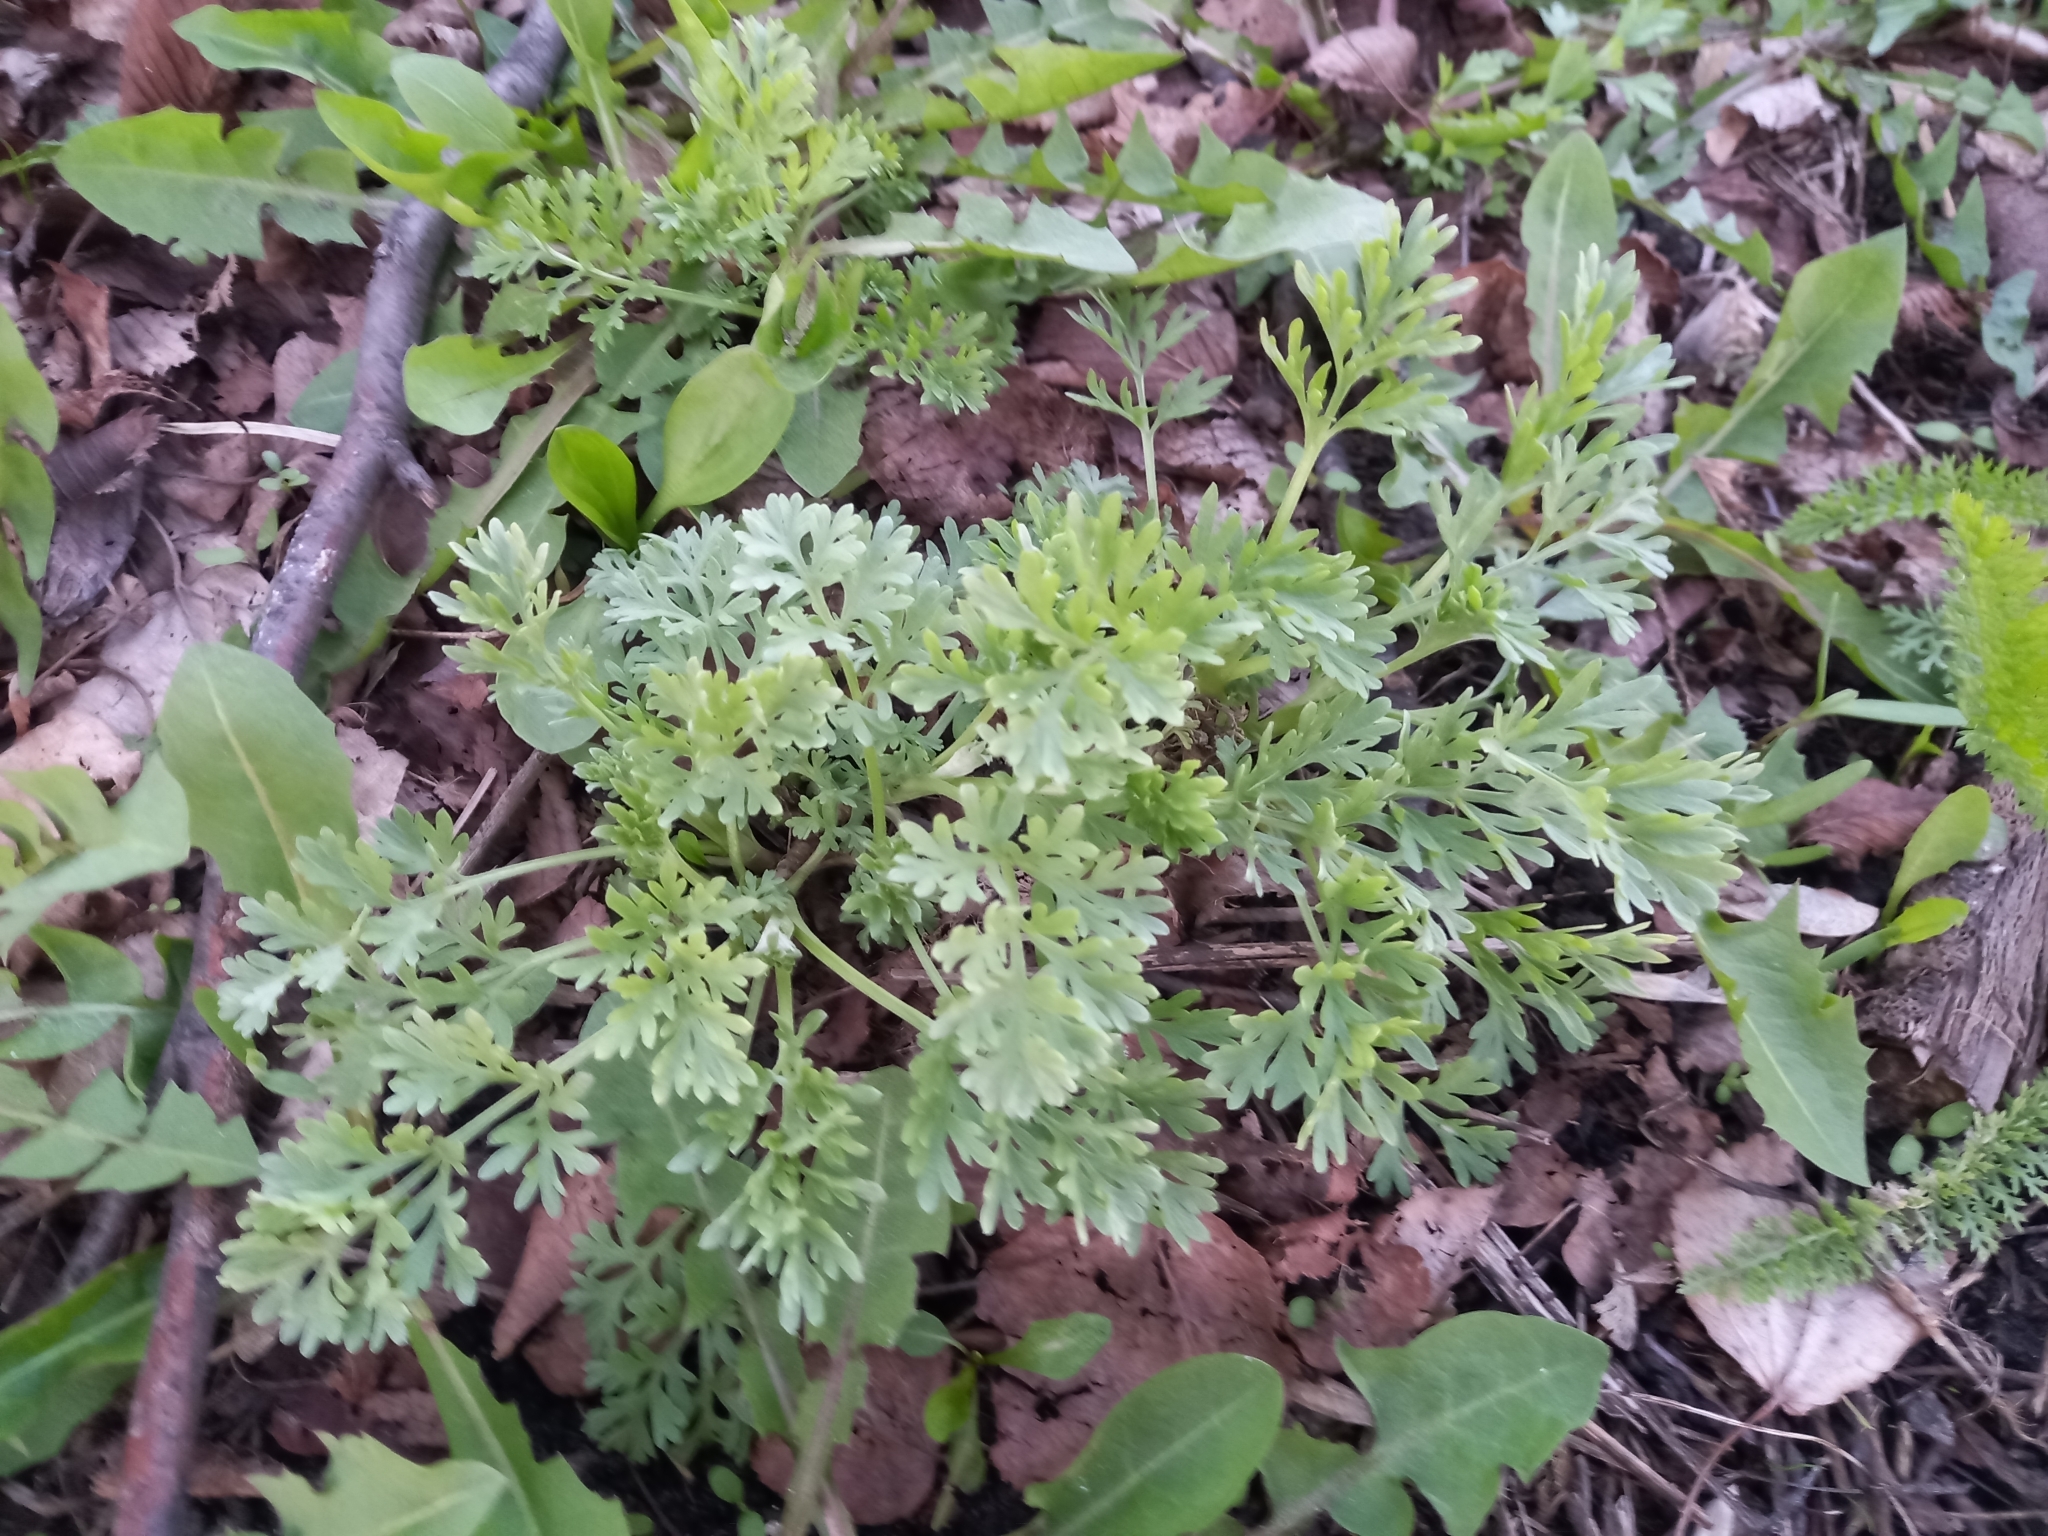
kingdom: Plantae
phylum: Tracheophyta
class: Magnoliopsida
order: Asterales
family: Asteraceae
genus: Artemisia
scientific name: Artemisia absinthium
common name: Wormwood
